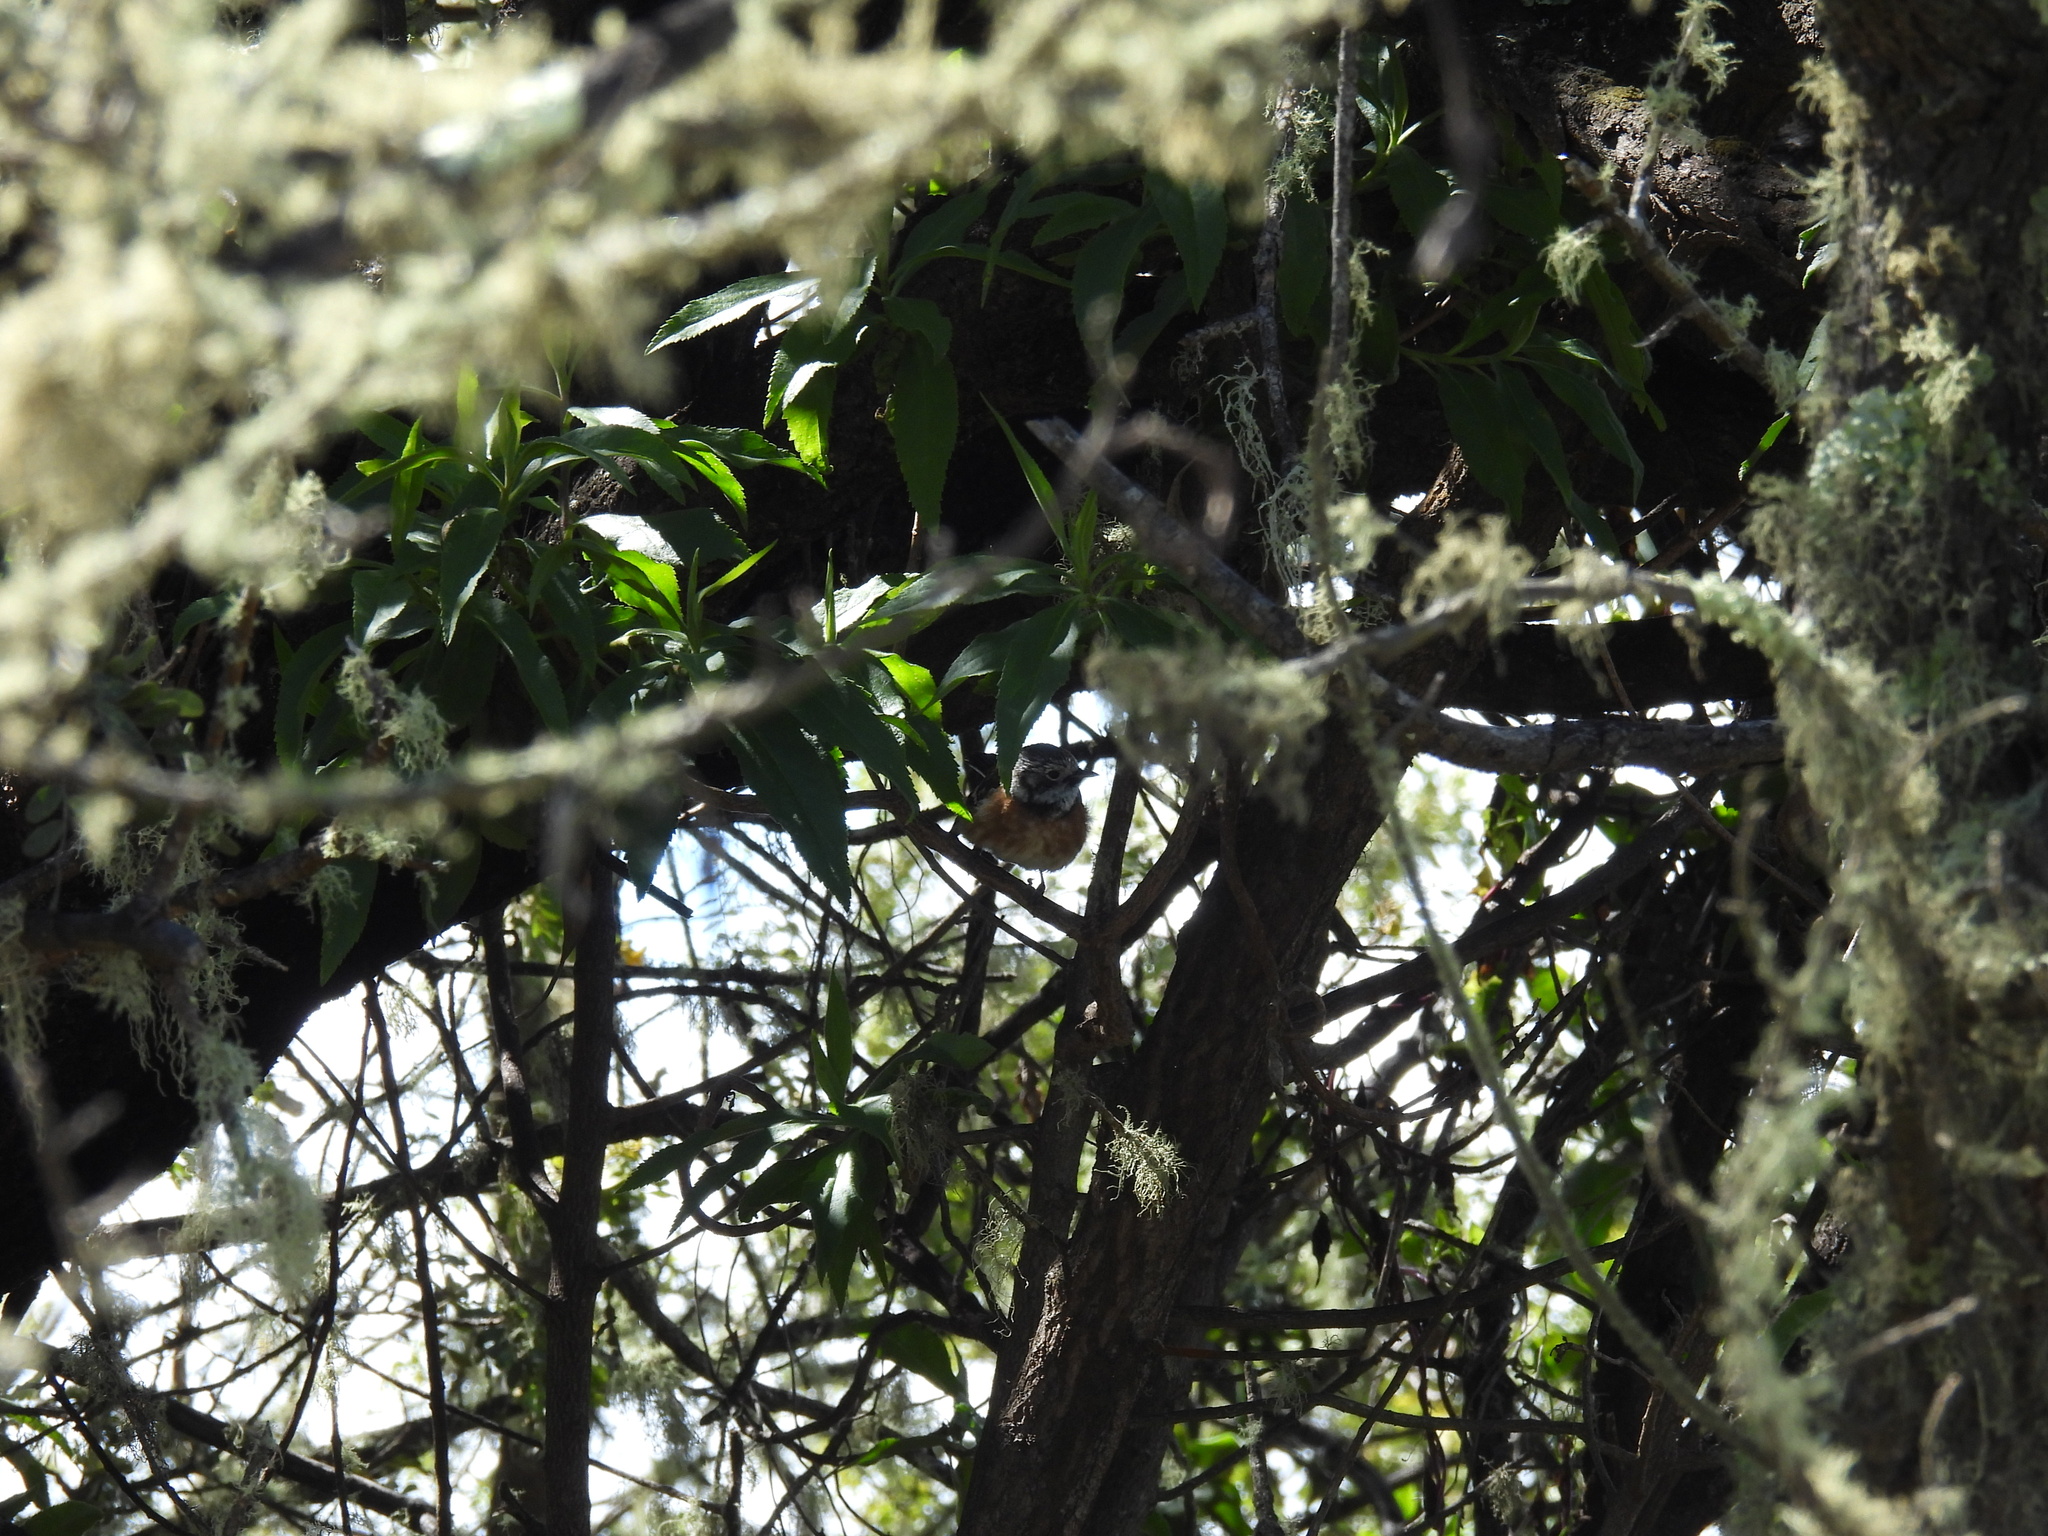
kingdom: Animalia
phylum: Chordata
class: Aves
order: Passeriformes
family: Monarchidae
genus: Chasiempis
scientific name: Chasiempis sandwichensis
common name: Hawaii elepaio
